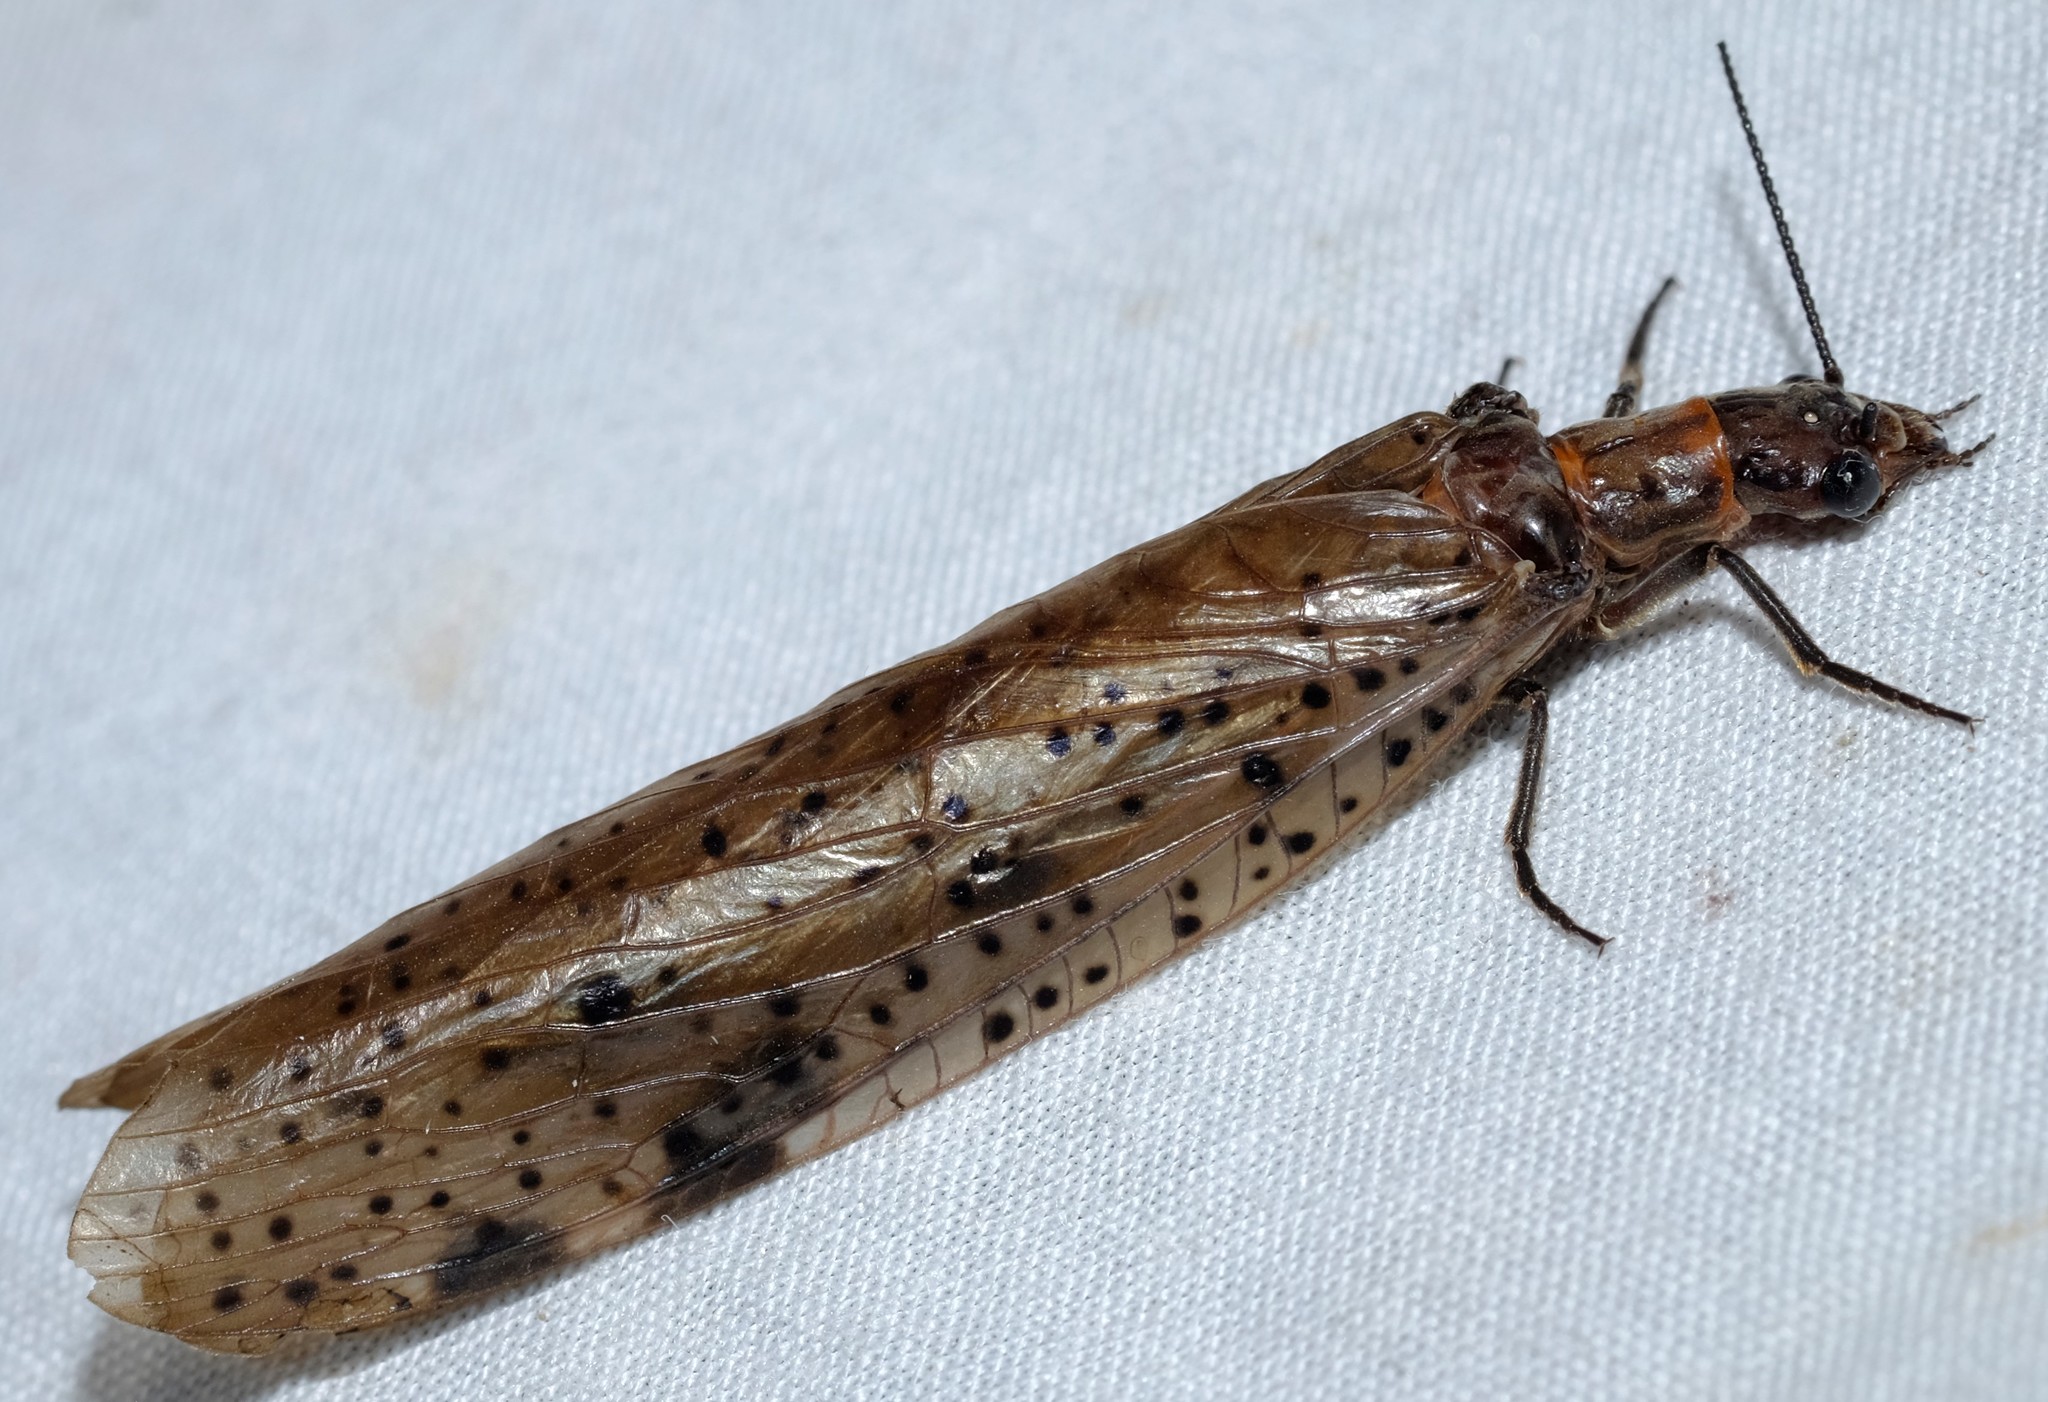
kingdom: Animalia
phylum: Arthropoda
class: Insecta
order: Megaloptera
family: Corydalidae
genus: Archichauliodes
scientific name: Archichauliodes guttiferus
